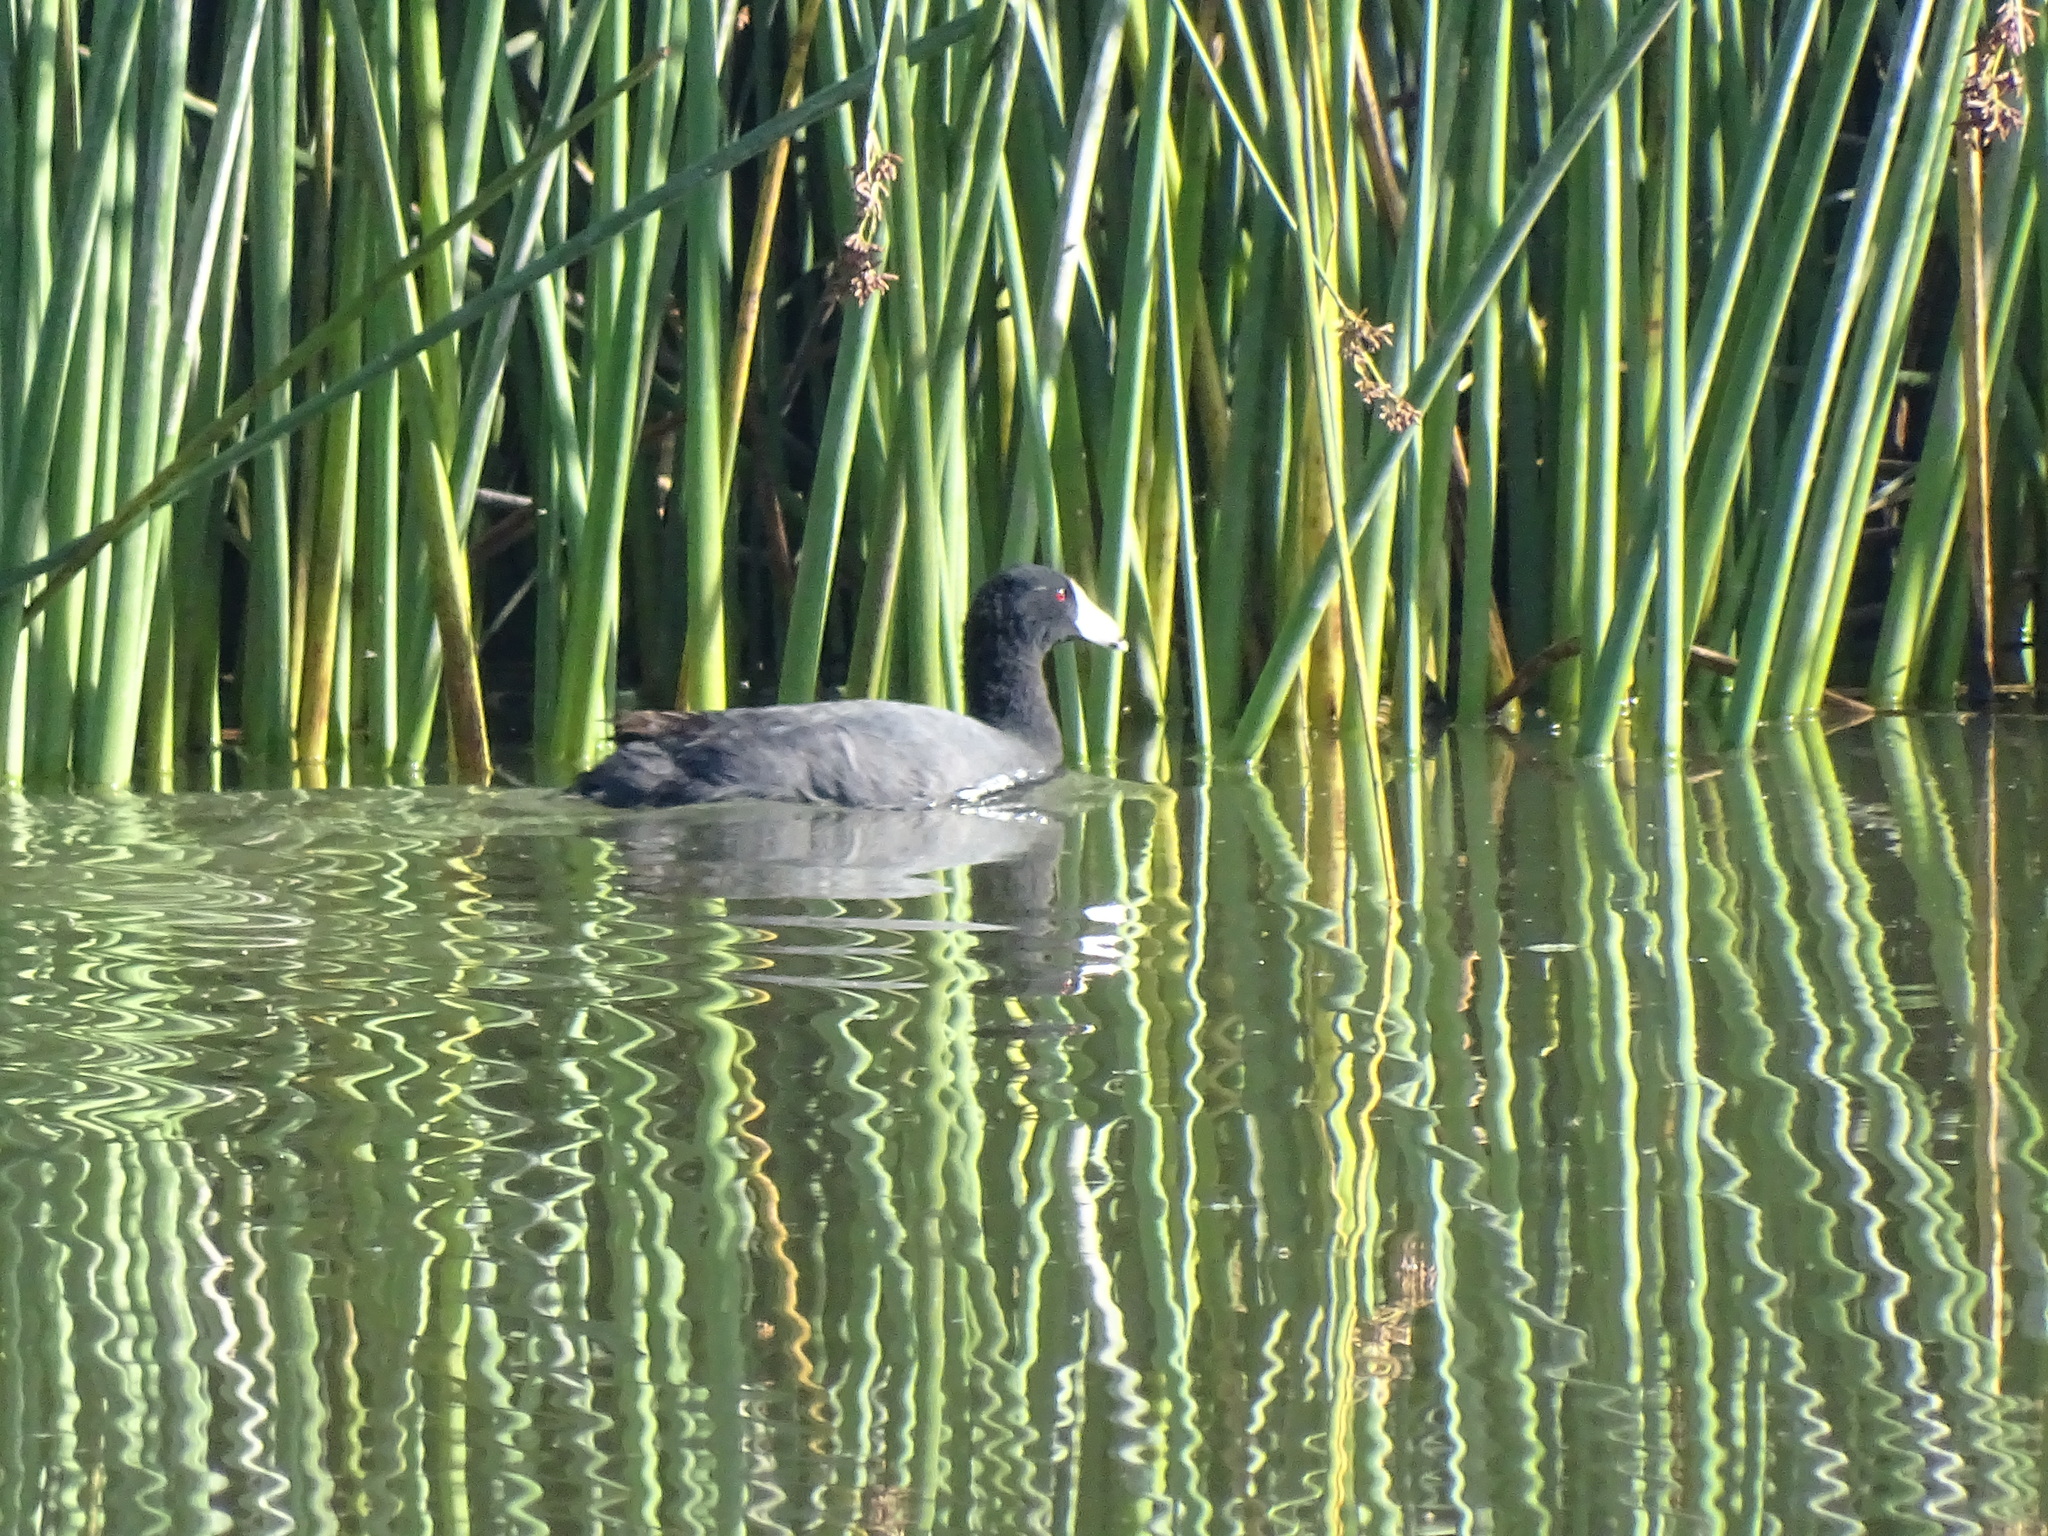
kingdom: Animalia
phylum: Chordata
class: Aves
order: Gruiformes
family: Rallidae
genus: Fulica
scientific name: Fulica americana
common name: American coot
